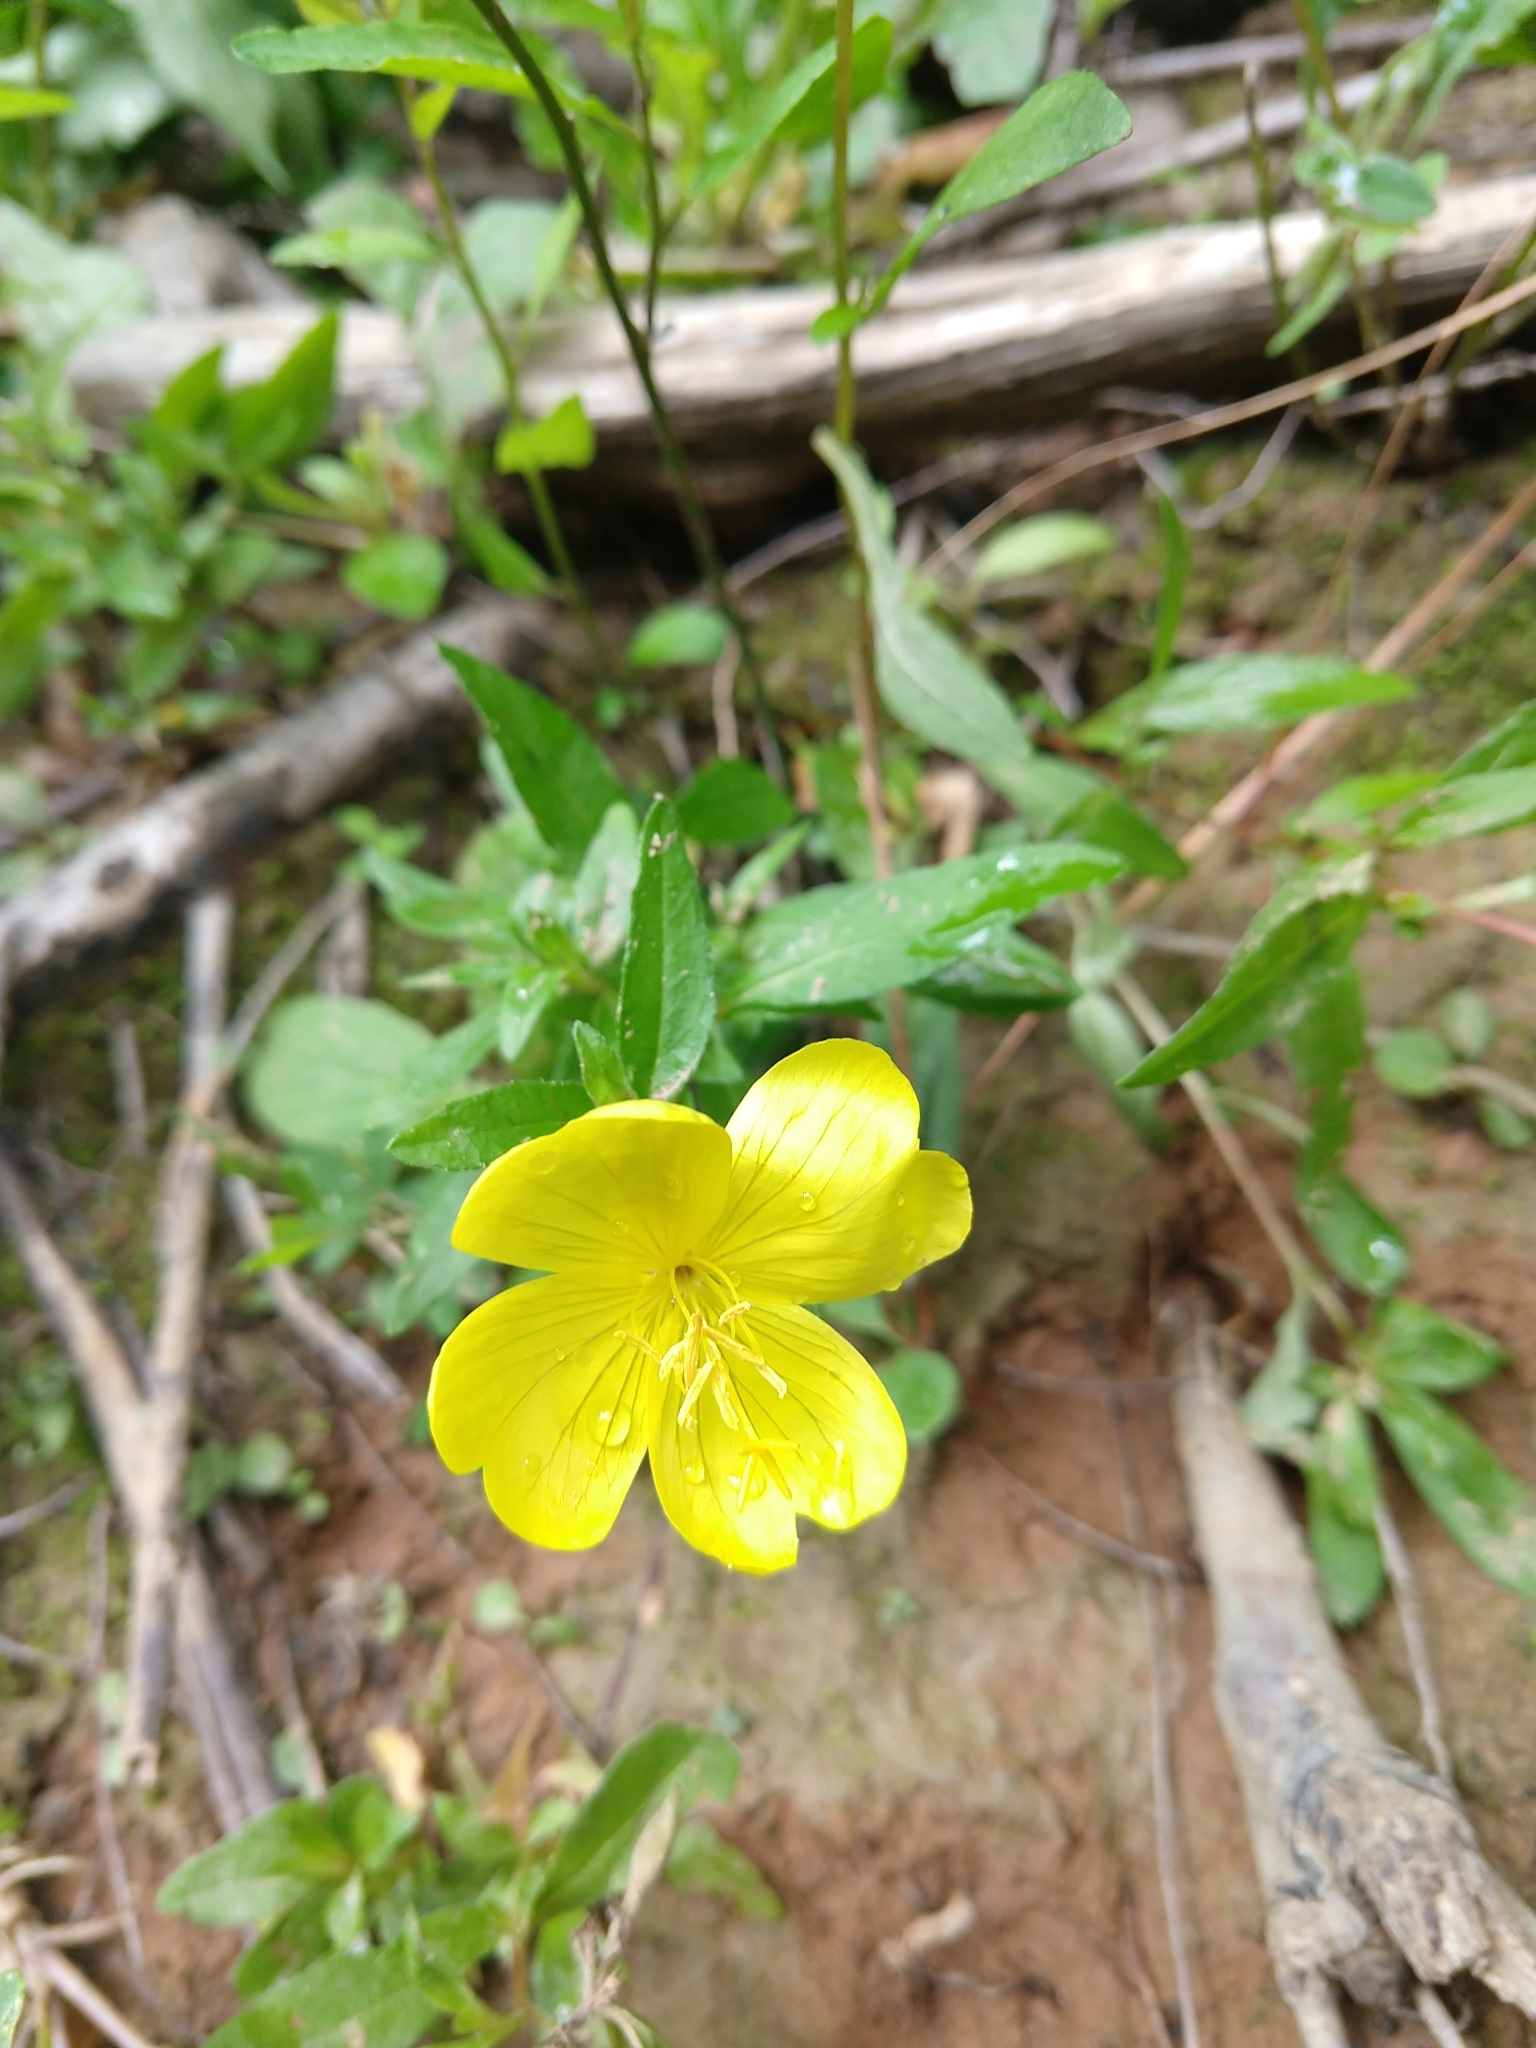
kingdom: Plantae
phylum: Tracheophyta
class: Magnoliopsida
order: Myrtales
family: Onagraceae
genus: Oenothera
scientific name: Oenothera fruticosa
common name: Southern sundrops
